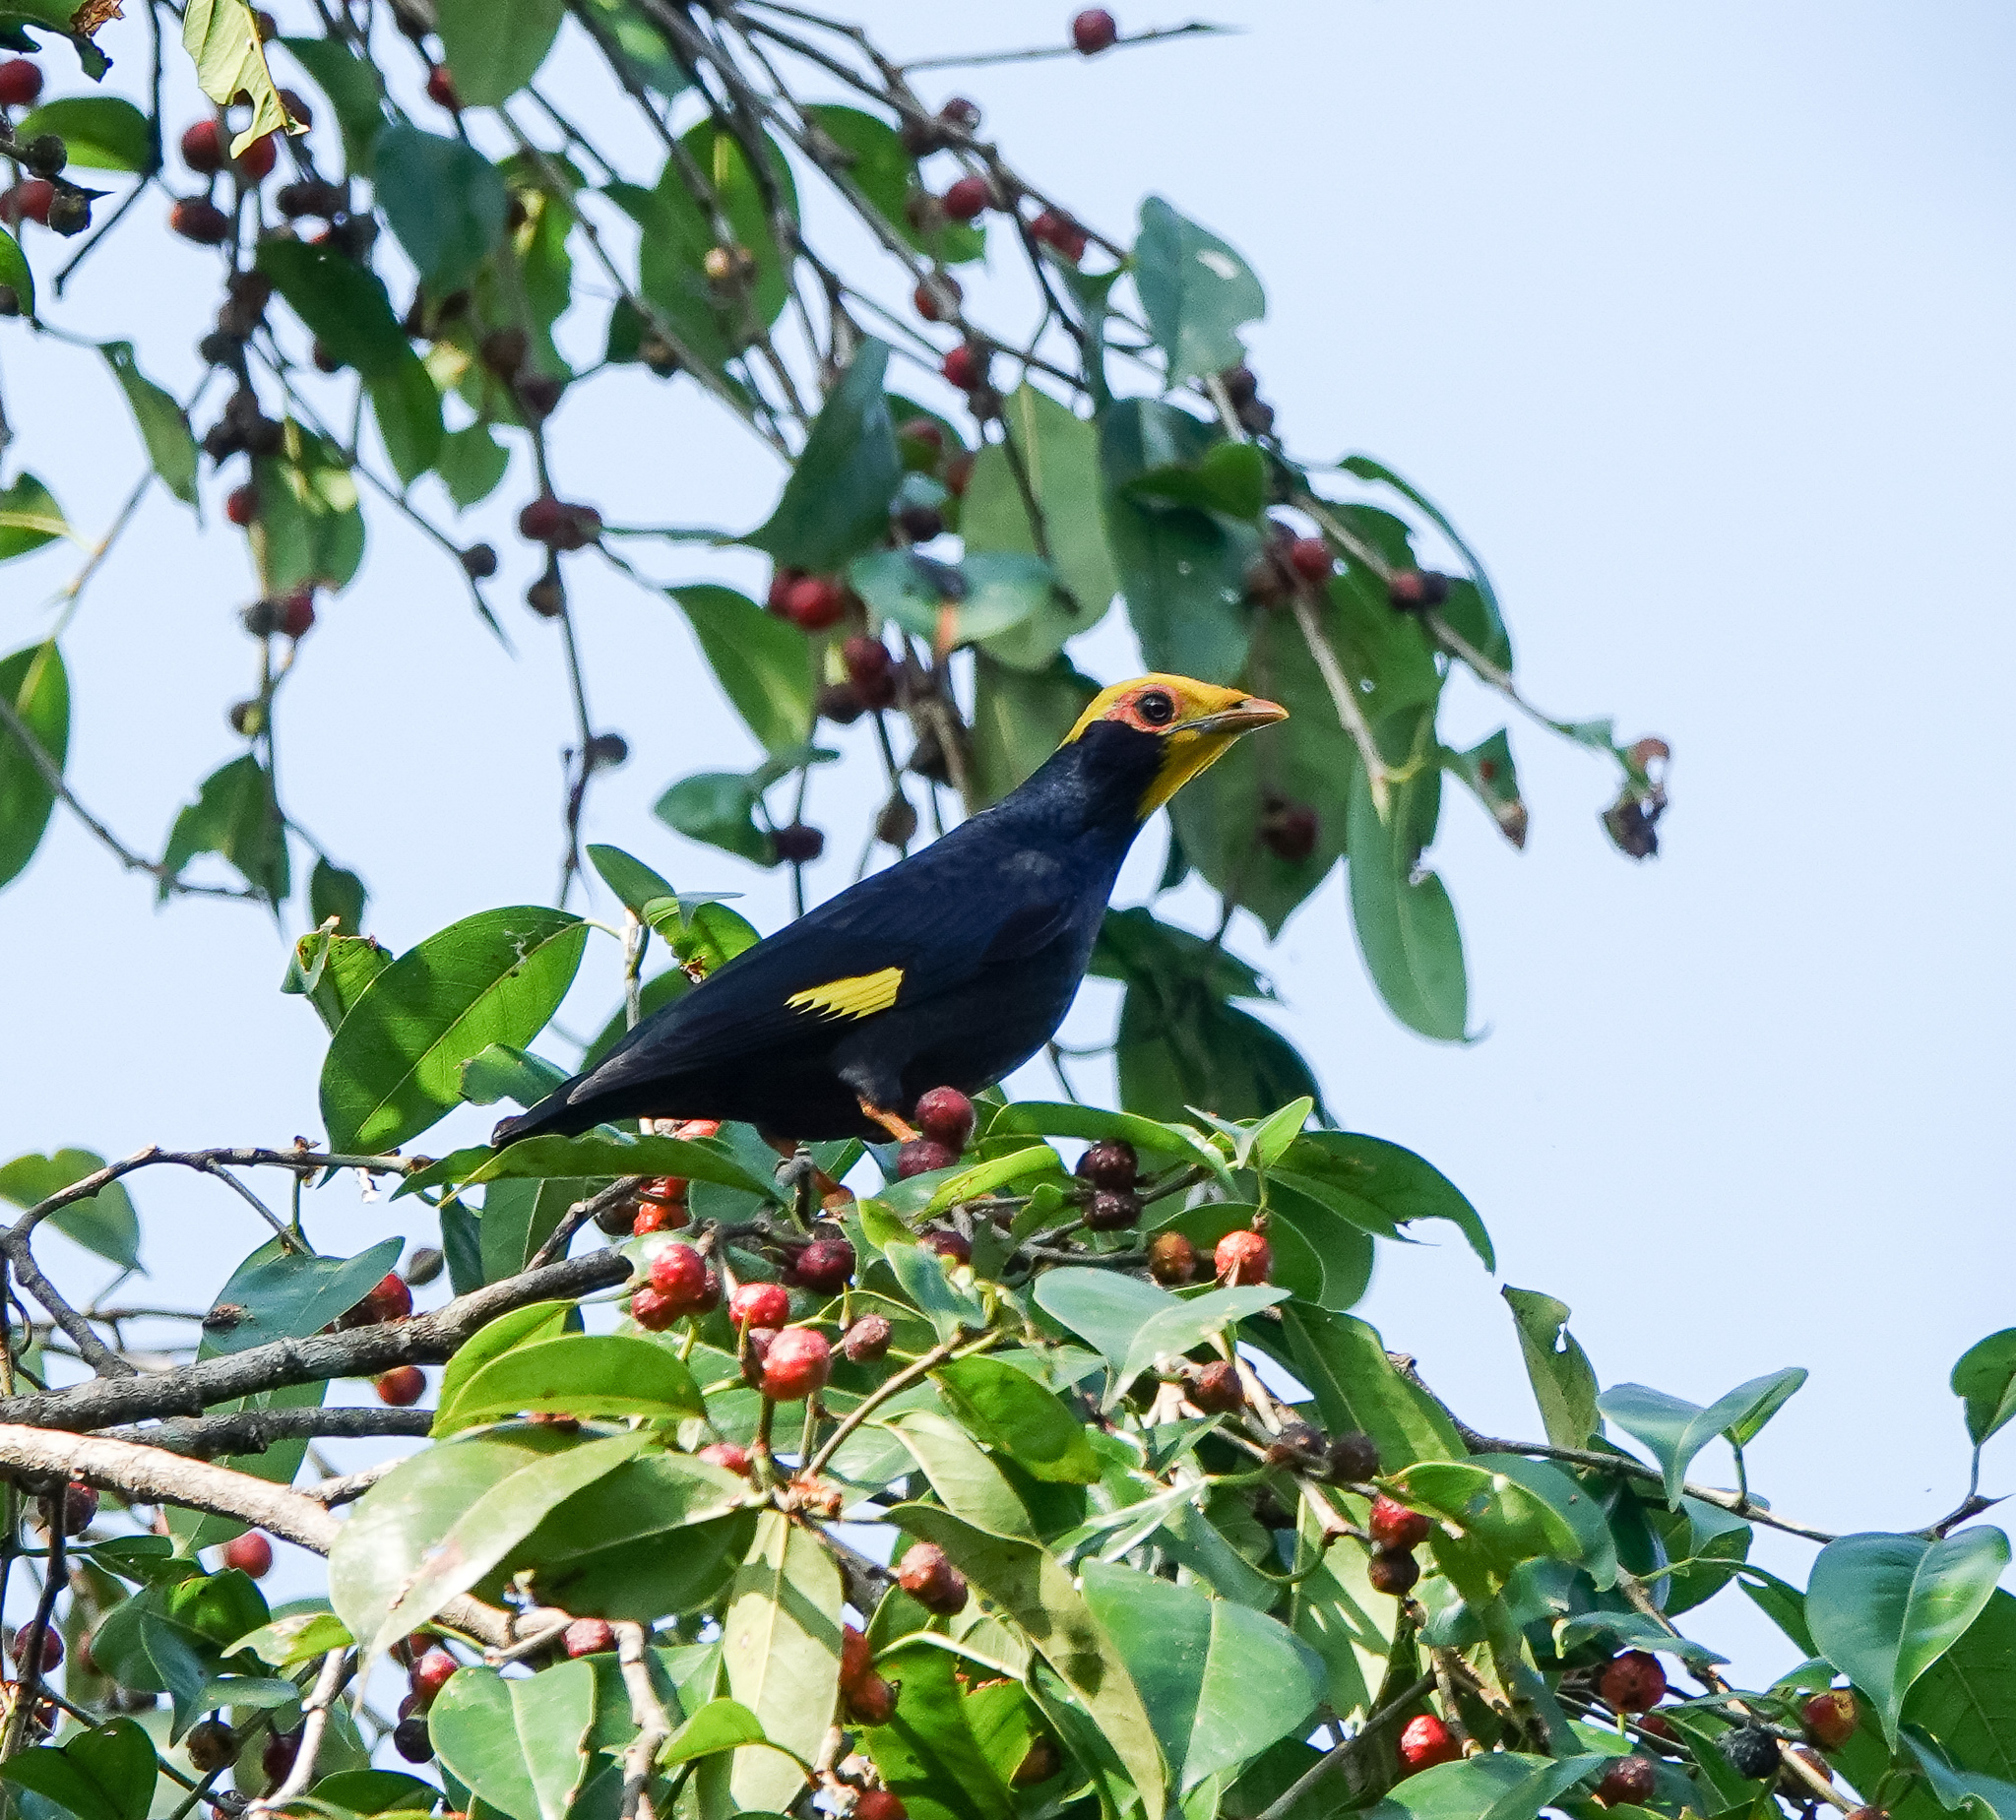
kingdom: Animalia
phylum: Chordata
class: Aves
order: Passeriformes
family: Sturnidae
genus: Ampeliceps
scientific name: Ampeliceps coronatus
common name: Golden-crested myna
